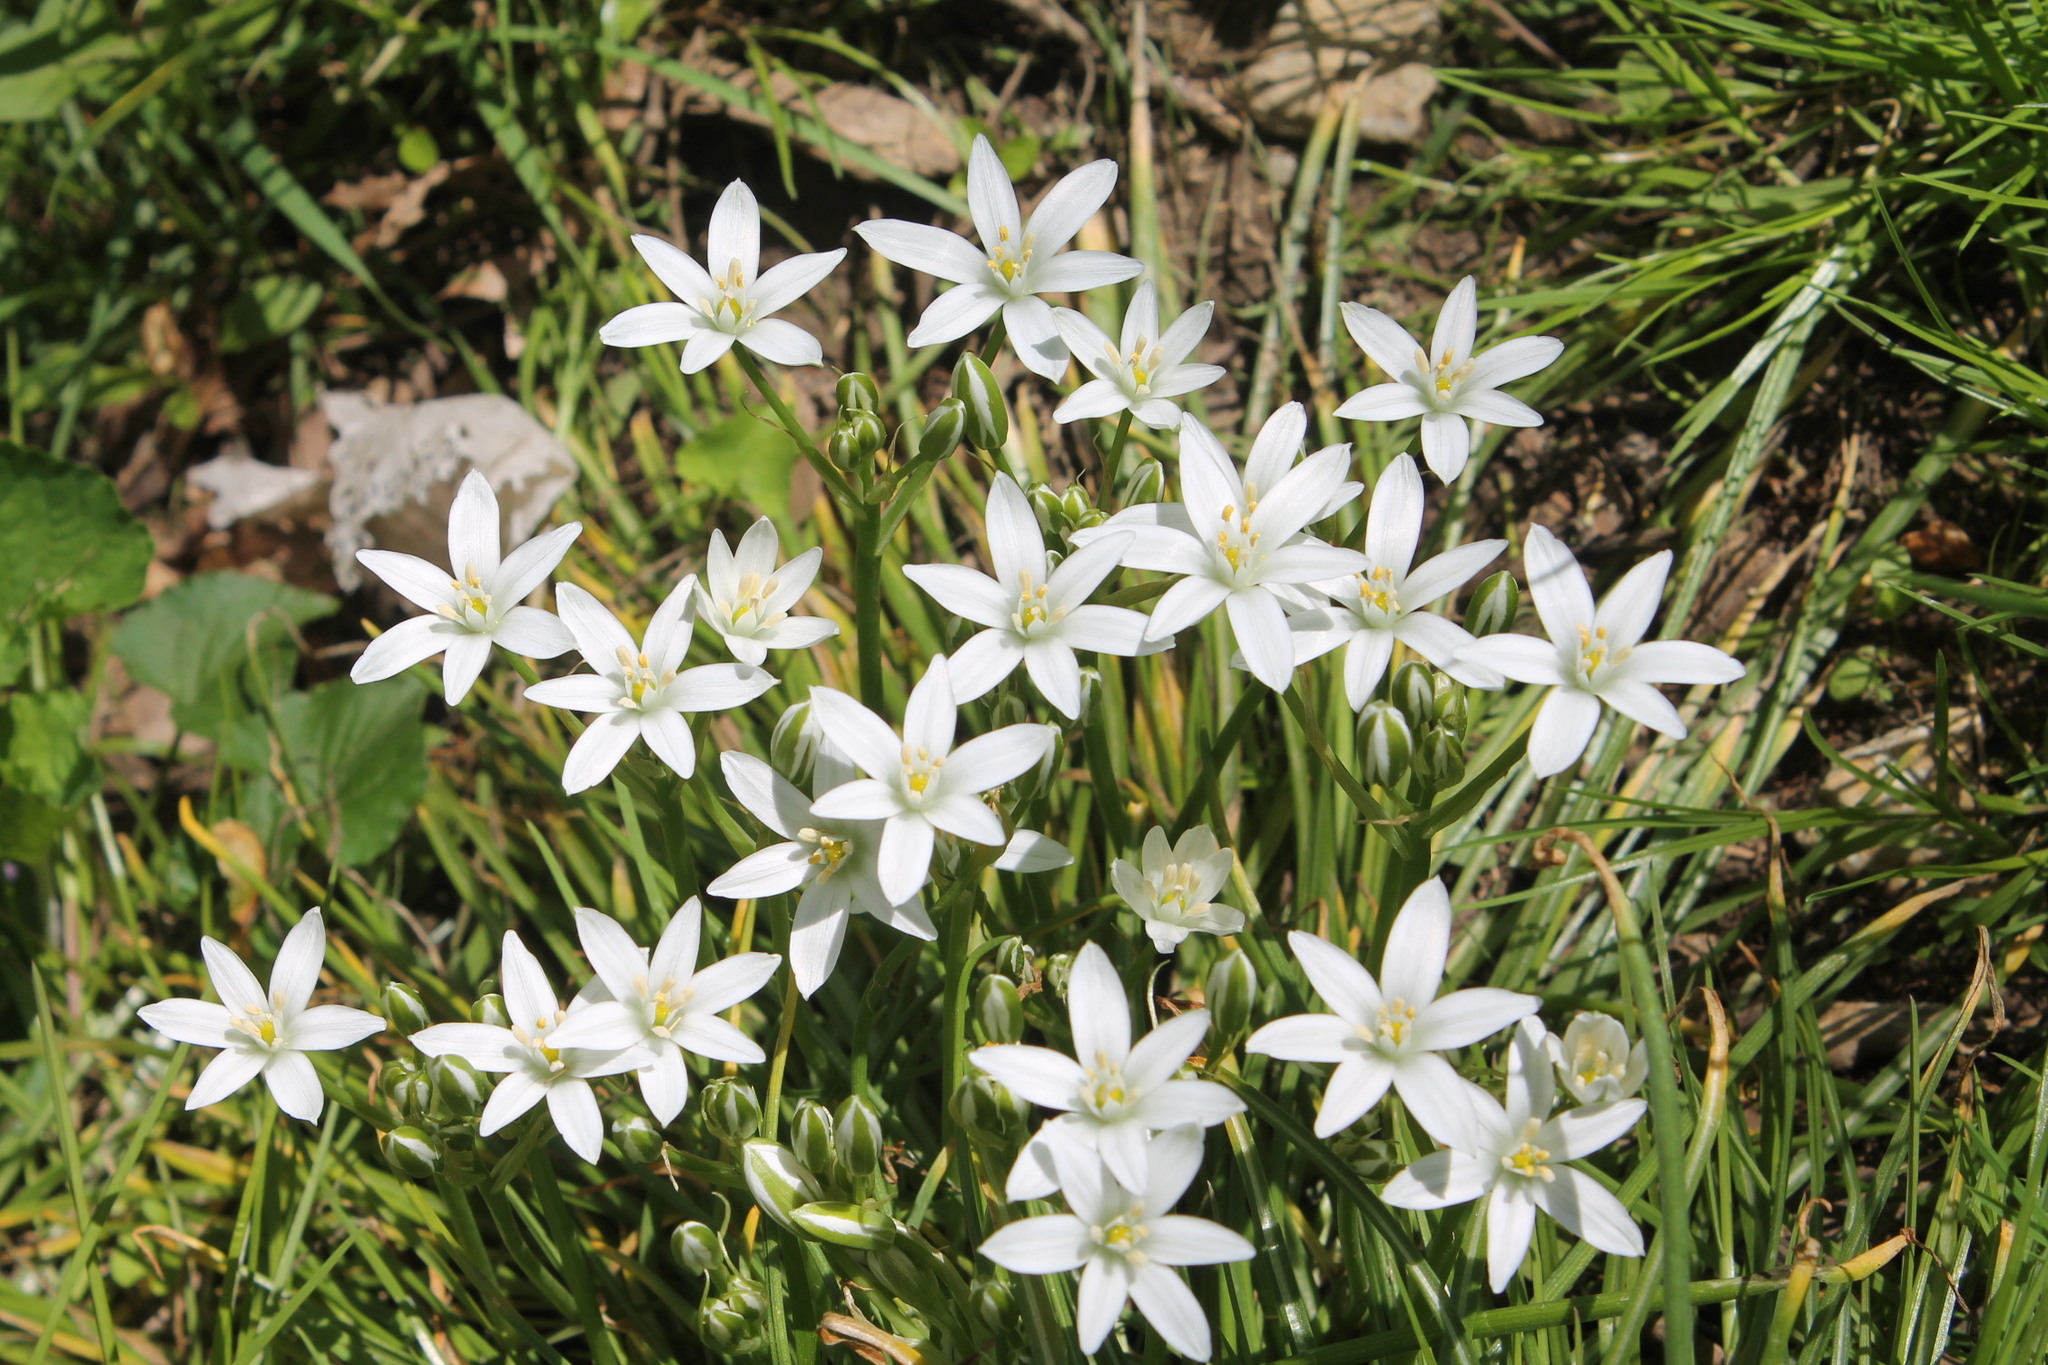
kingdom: Plantae
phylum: Tracheophyta
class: Liliopsida
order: Asparagales
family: Asparagaceae
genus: Ornithogalum
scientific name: Ornithogalum umbellatum
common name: Garden star-of-bethlehem
